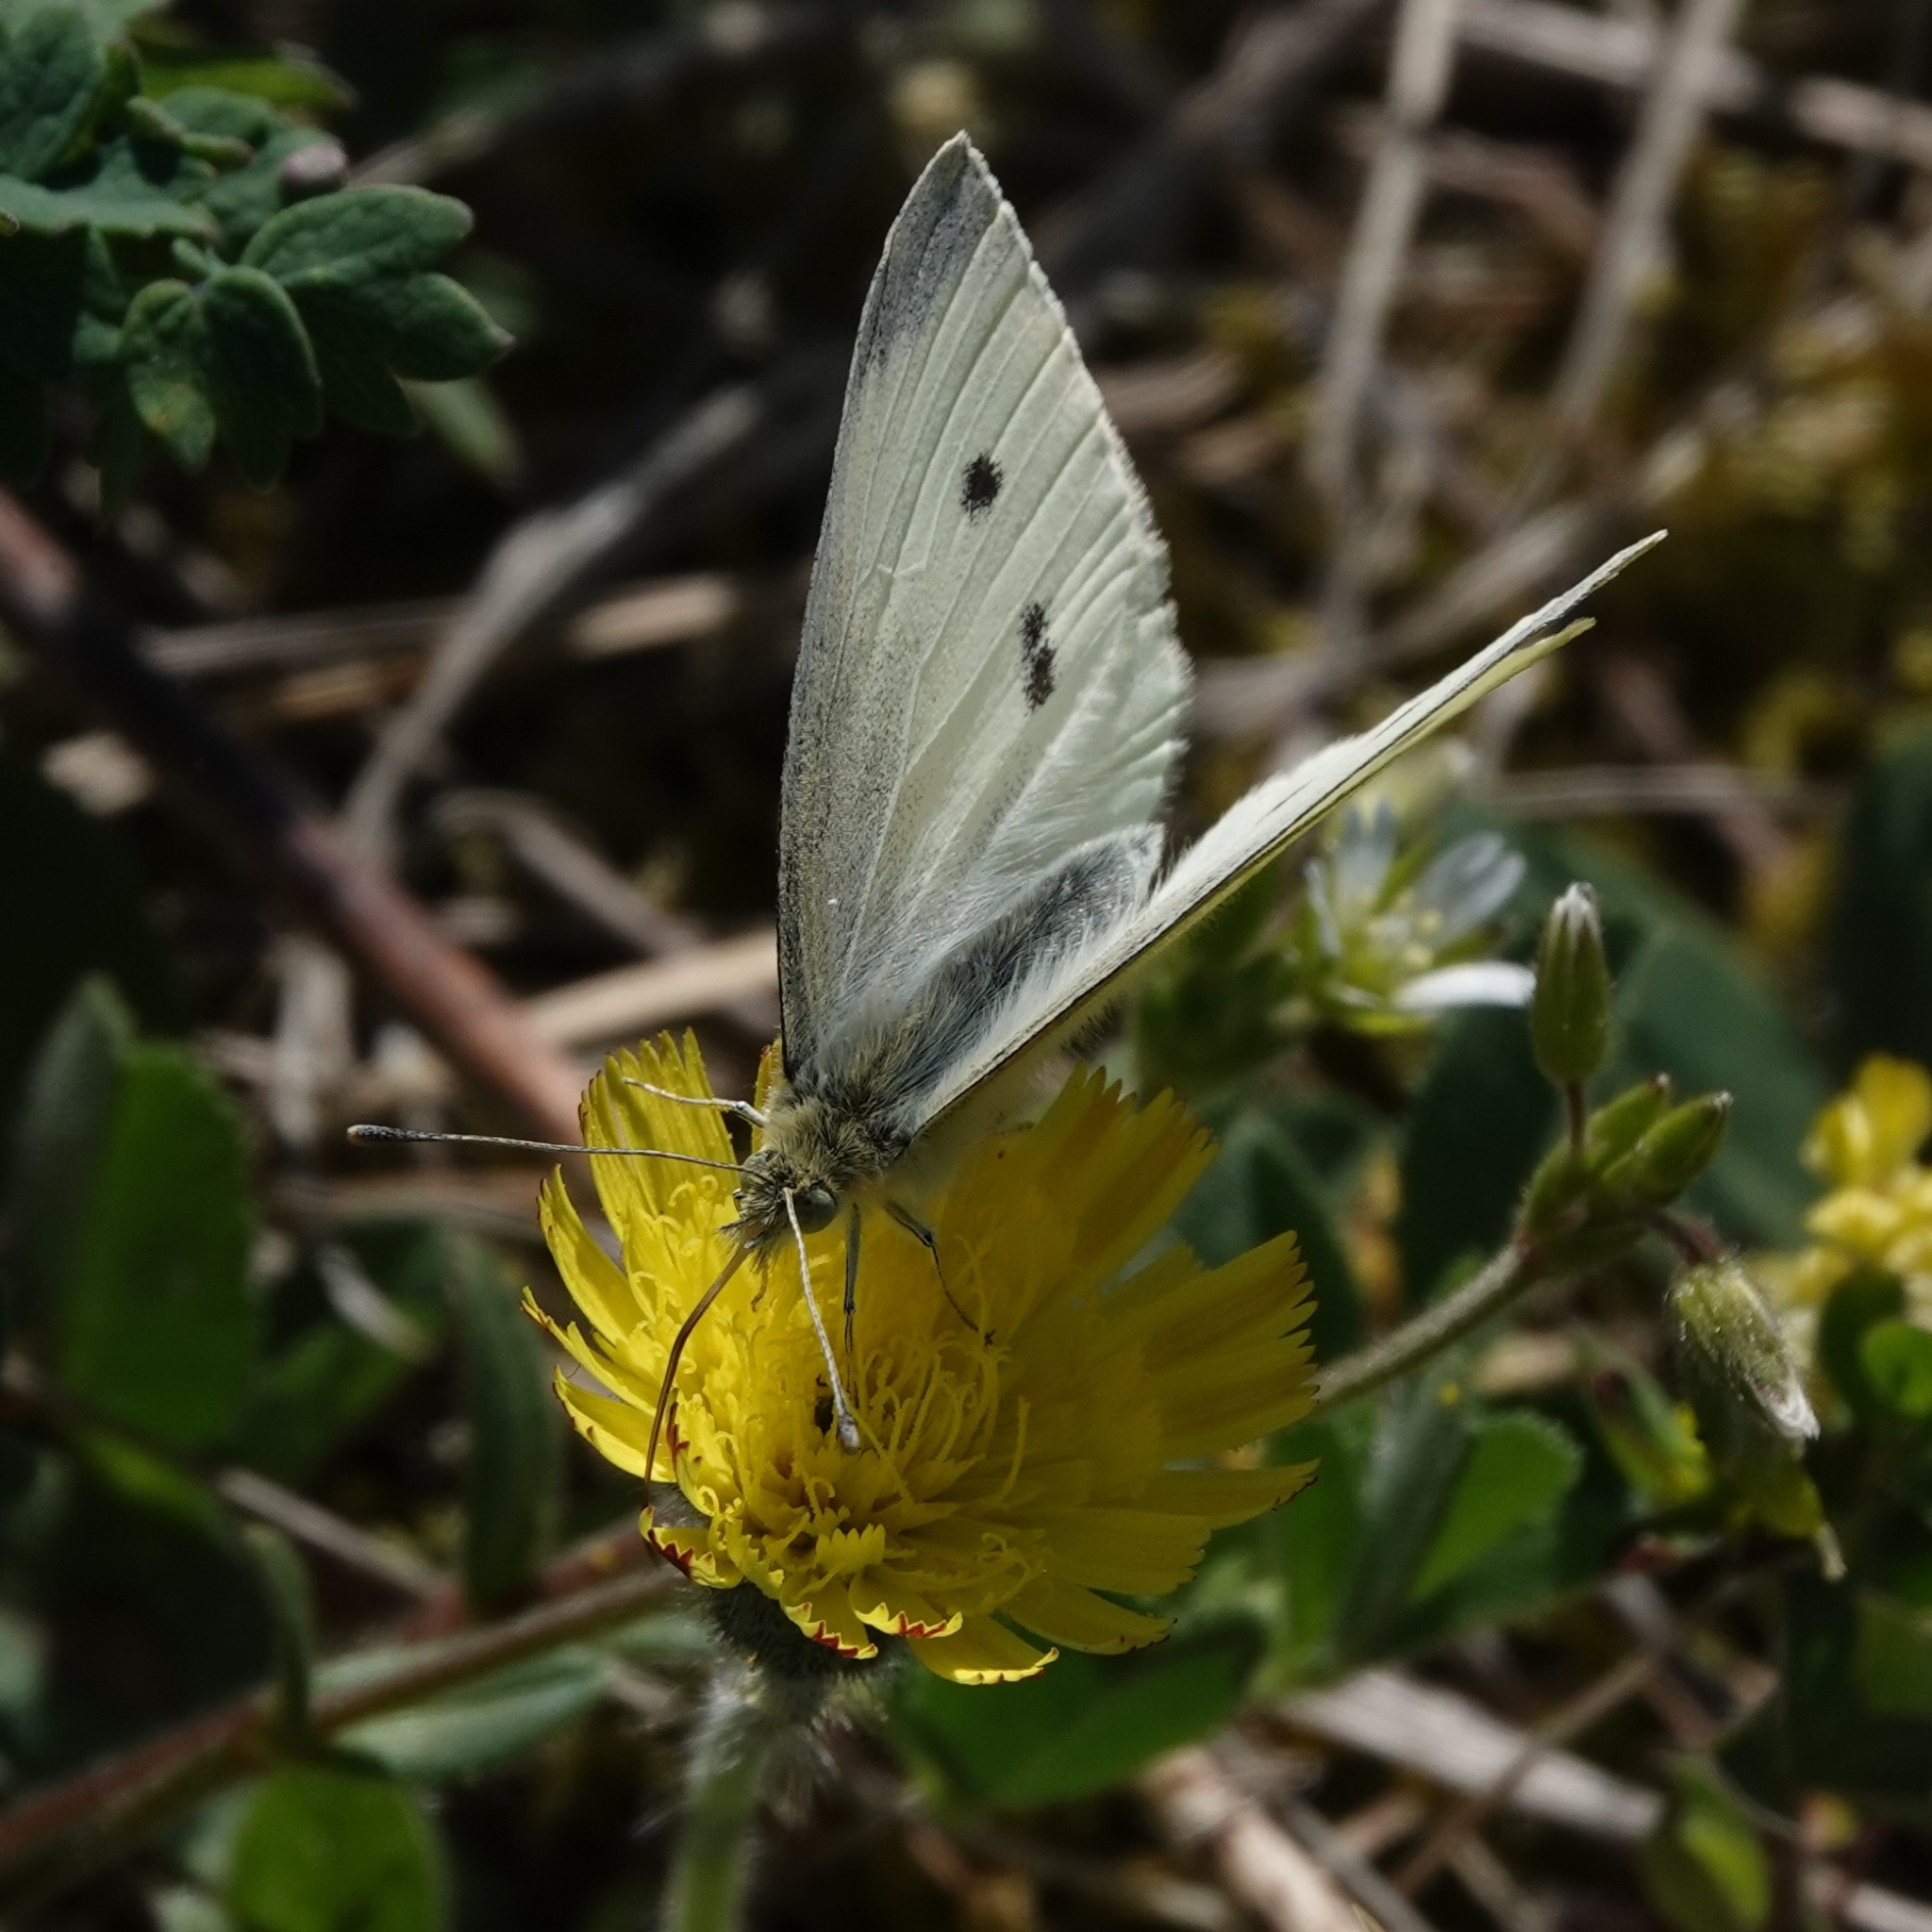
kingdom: Animalia
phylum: Arthropoda
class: Insecta
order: Lepidoptera
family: Pieridae
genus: Pieris
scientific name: Pieris rapae
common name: Small white
